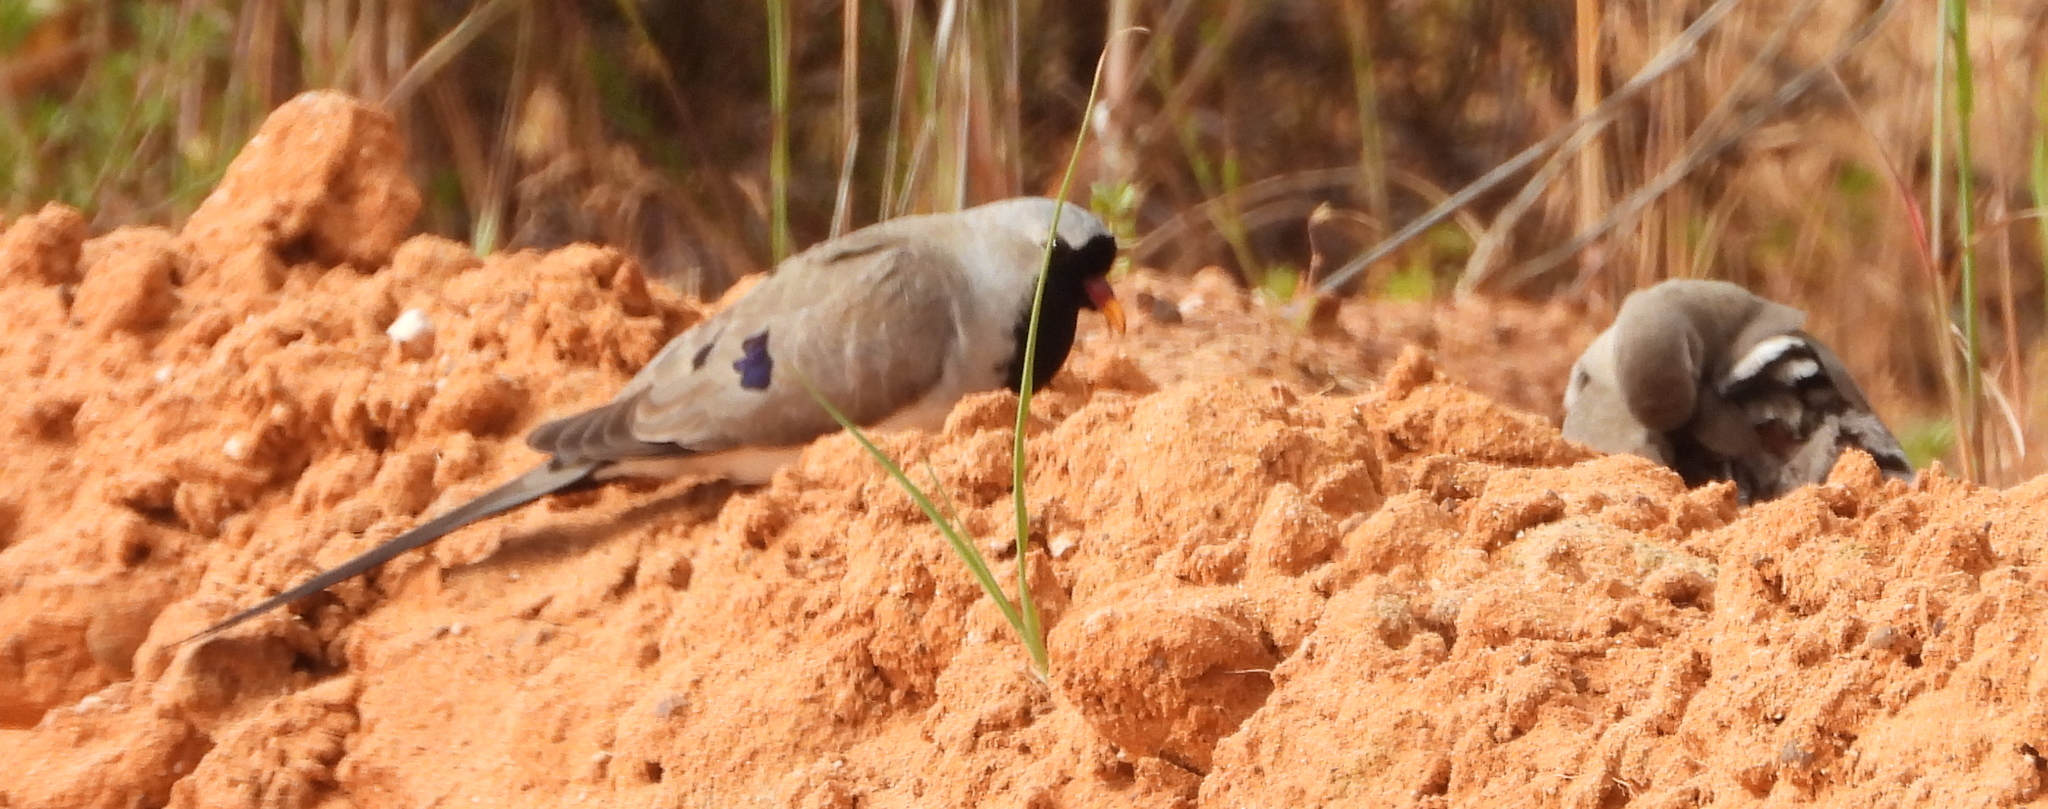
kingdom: Animalia
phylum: Chordata
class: Aves
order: Columbiformes
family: Columbidae
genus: Oena
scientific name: Oena capensis
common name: Namaqua dove
